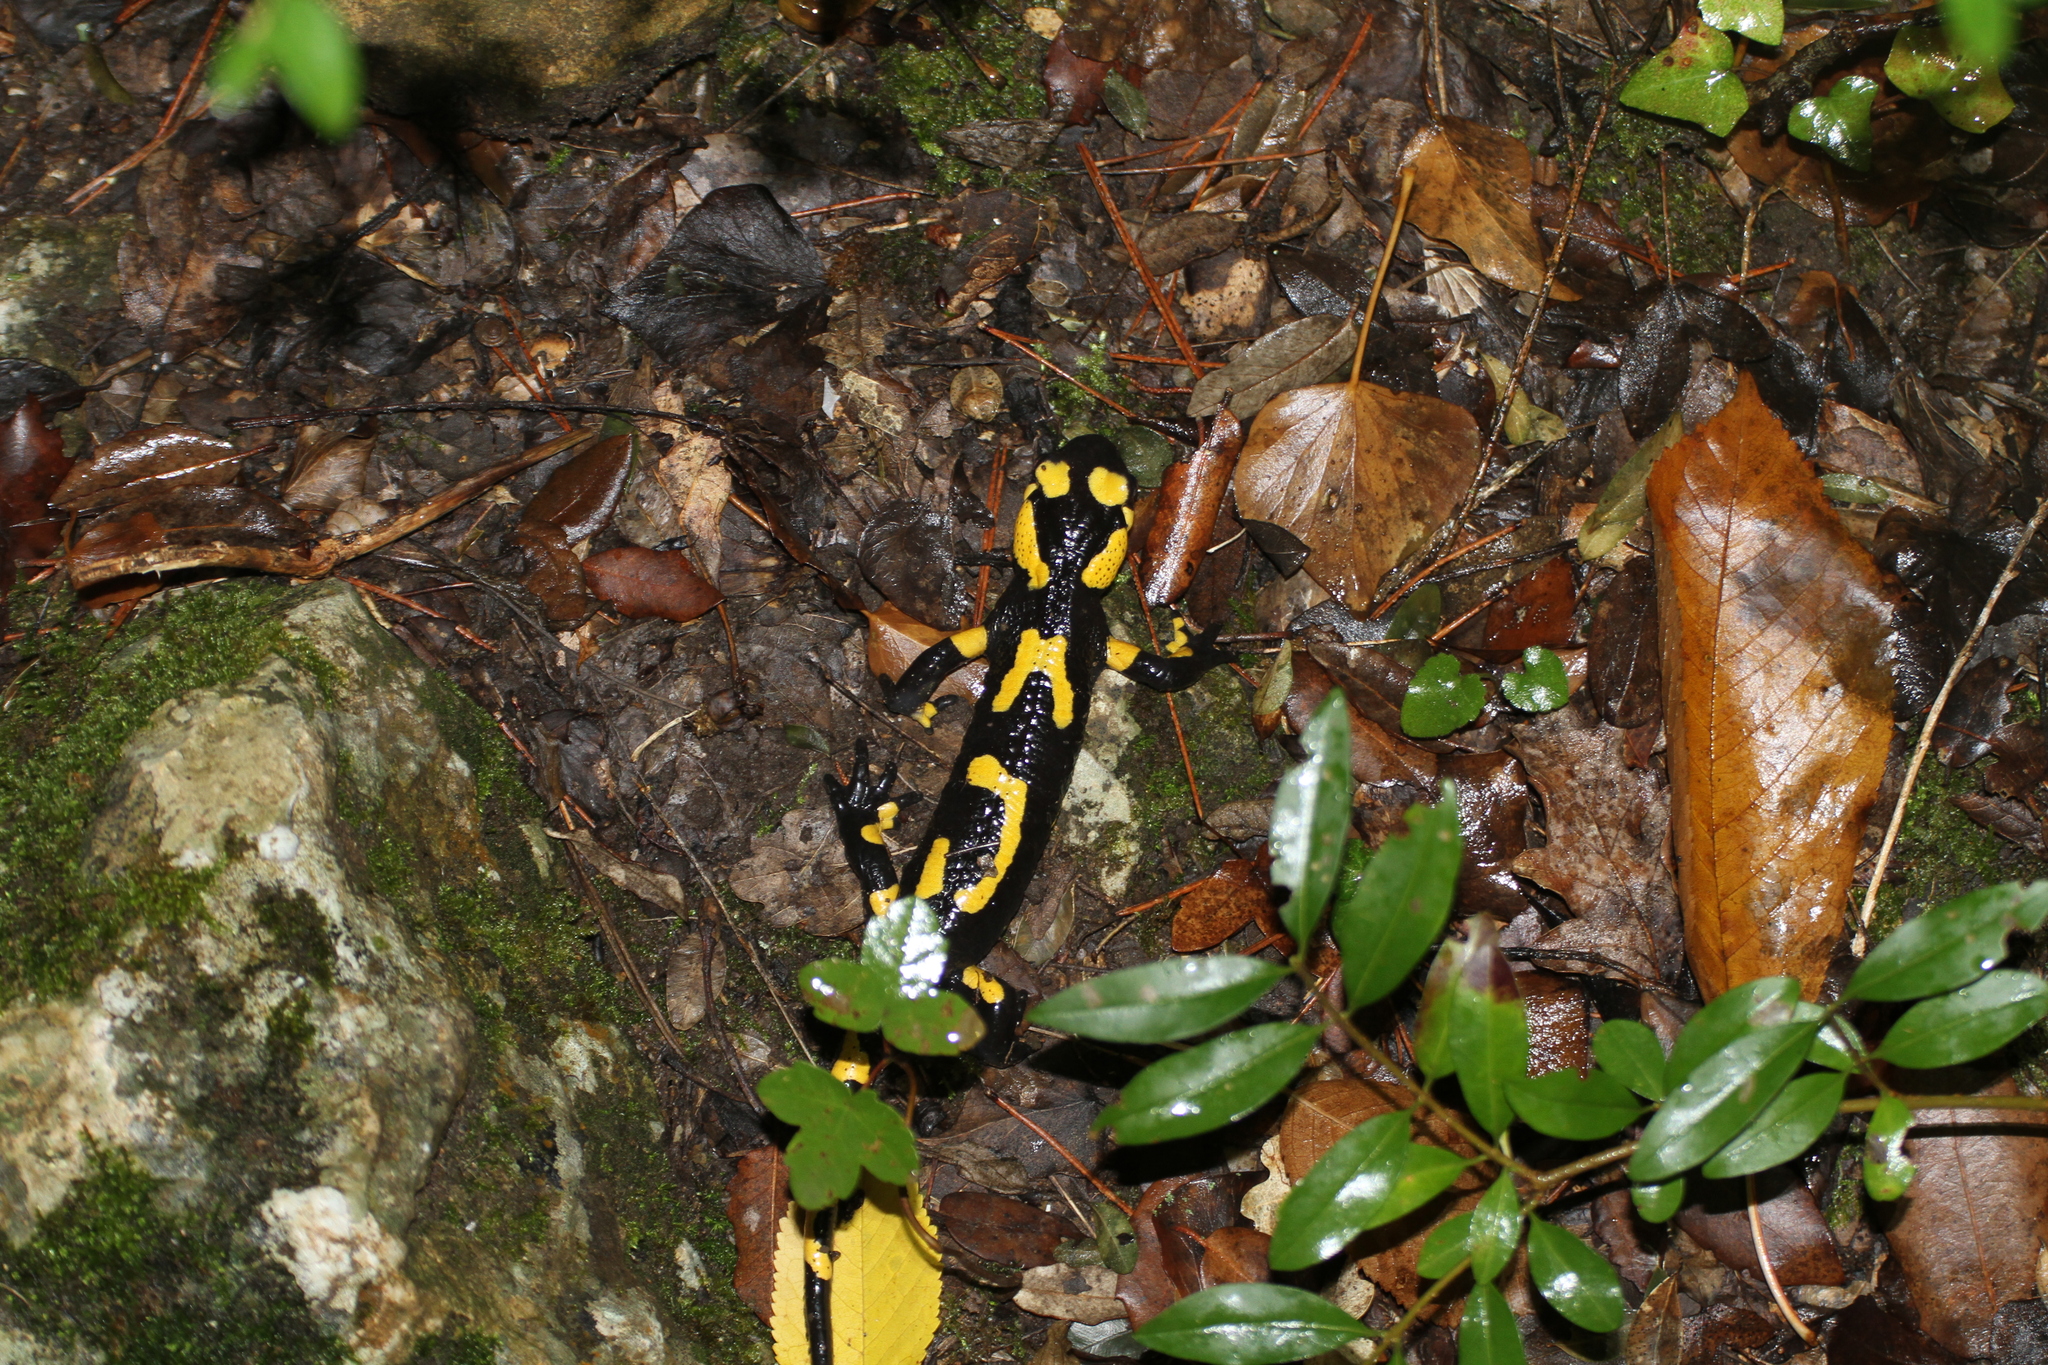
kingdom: Animalia
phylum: Chordata
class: Amphibia
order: Caudata
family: Salamandridae
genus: Salamandra
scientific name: Salamandra salamandra
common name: Fire salamander
